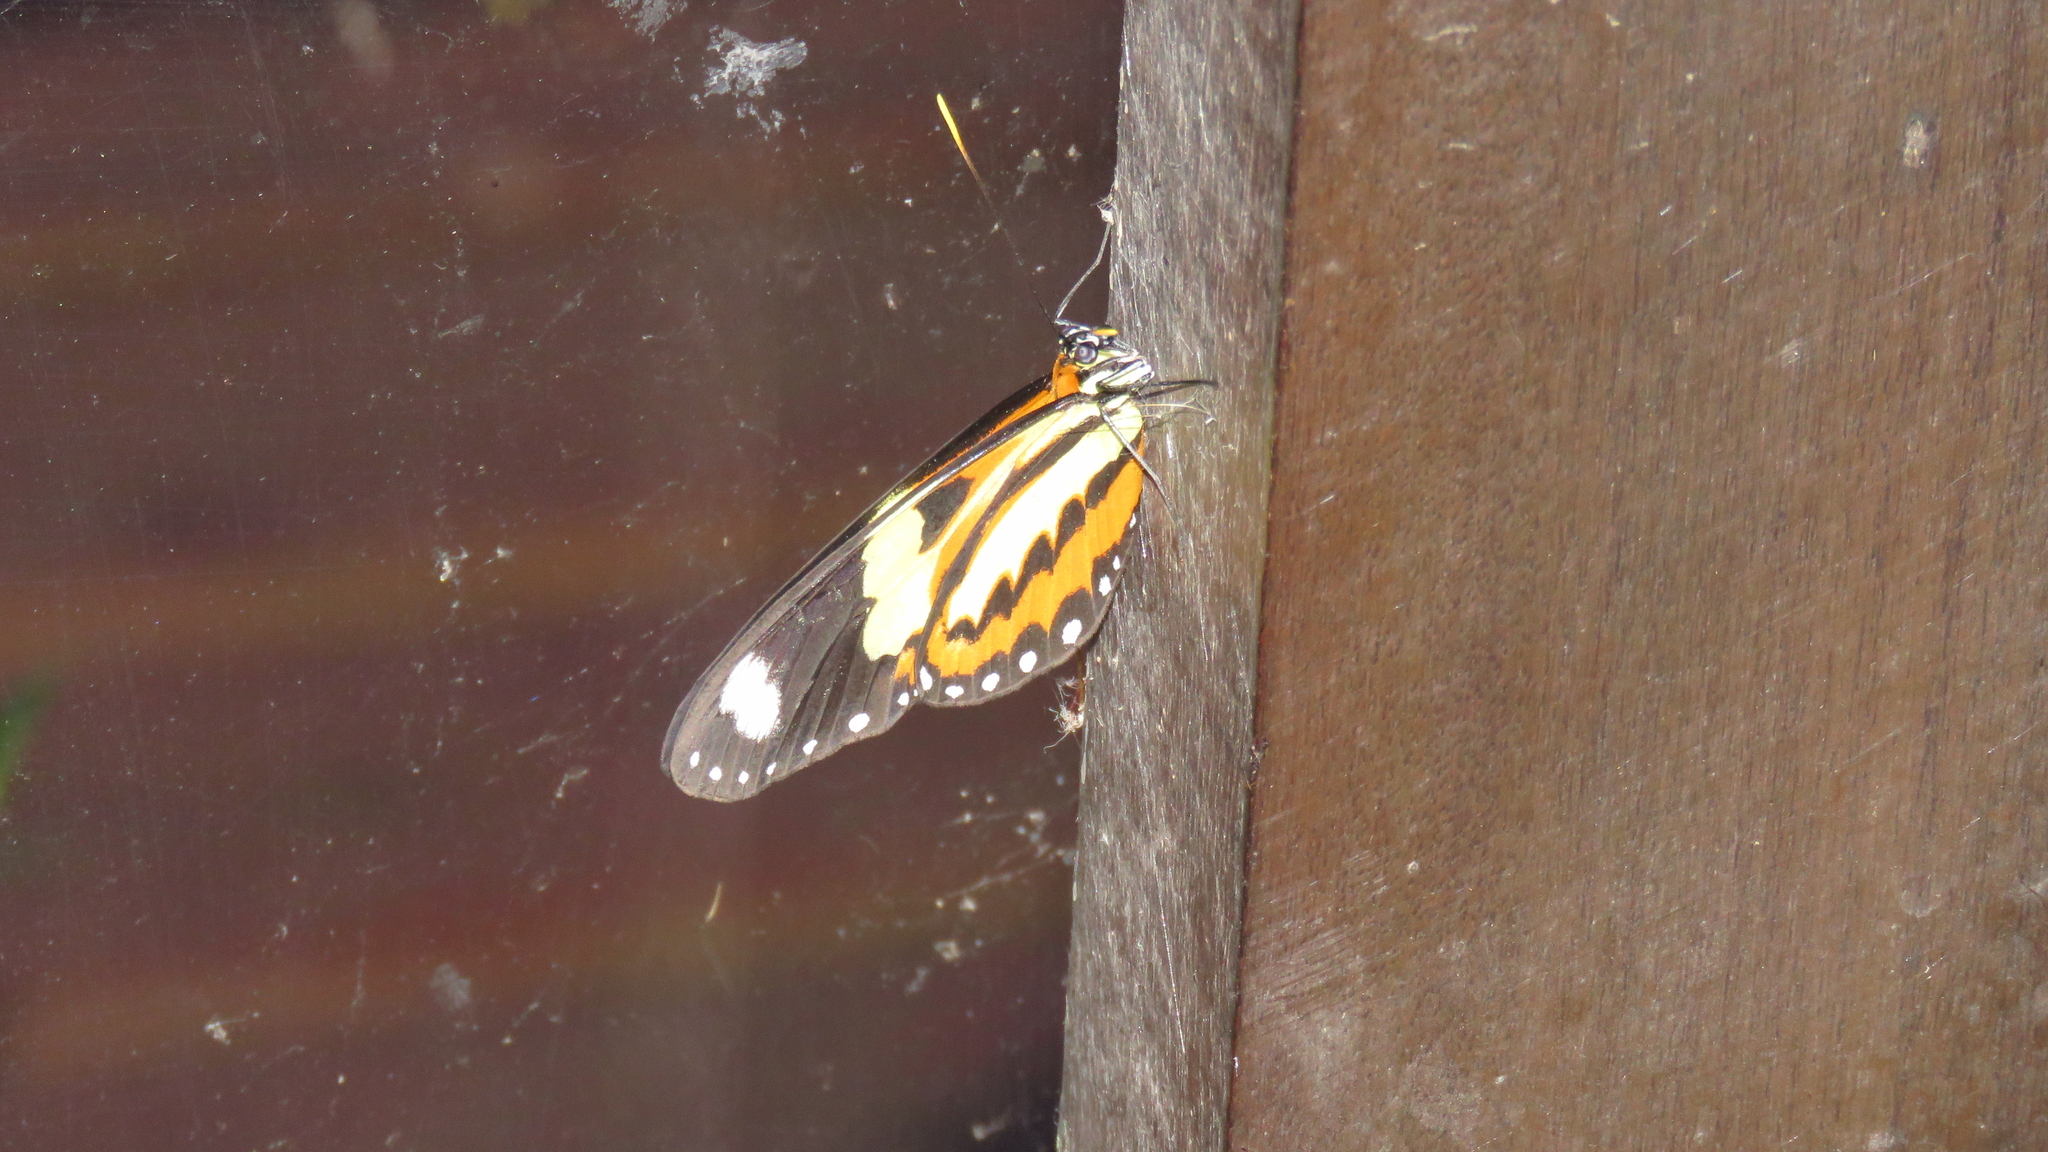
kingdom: Animalia
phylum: Arthropoda
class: Insecta
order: Lepidoptera
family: Nymphalidae
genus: Mechanitis
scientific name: Mechanitis lysimnia
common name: Lysimnia tigerwing
